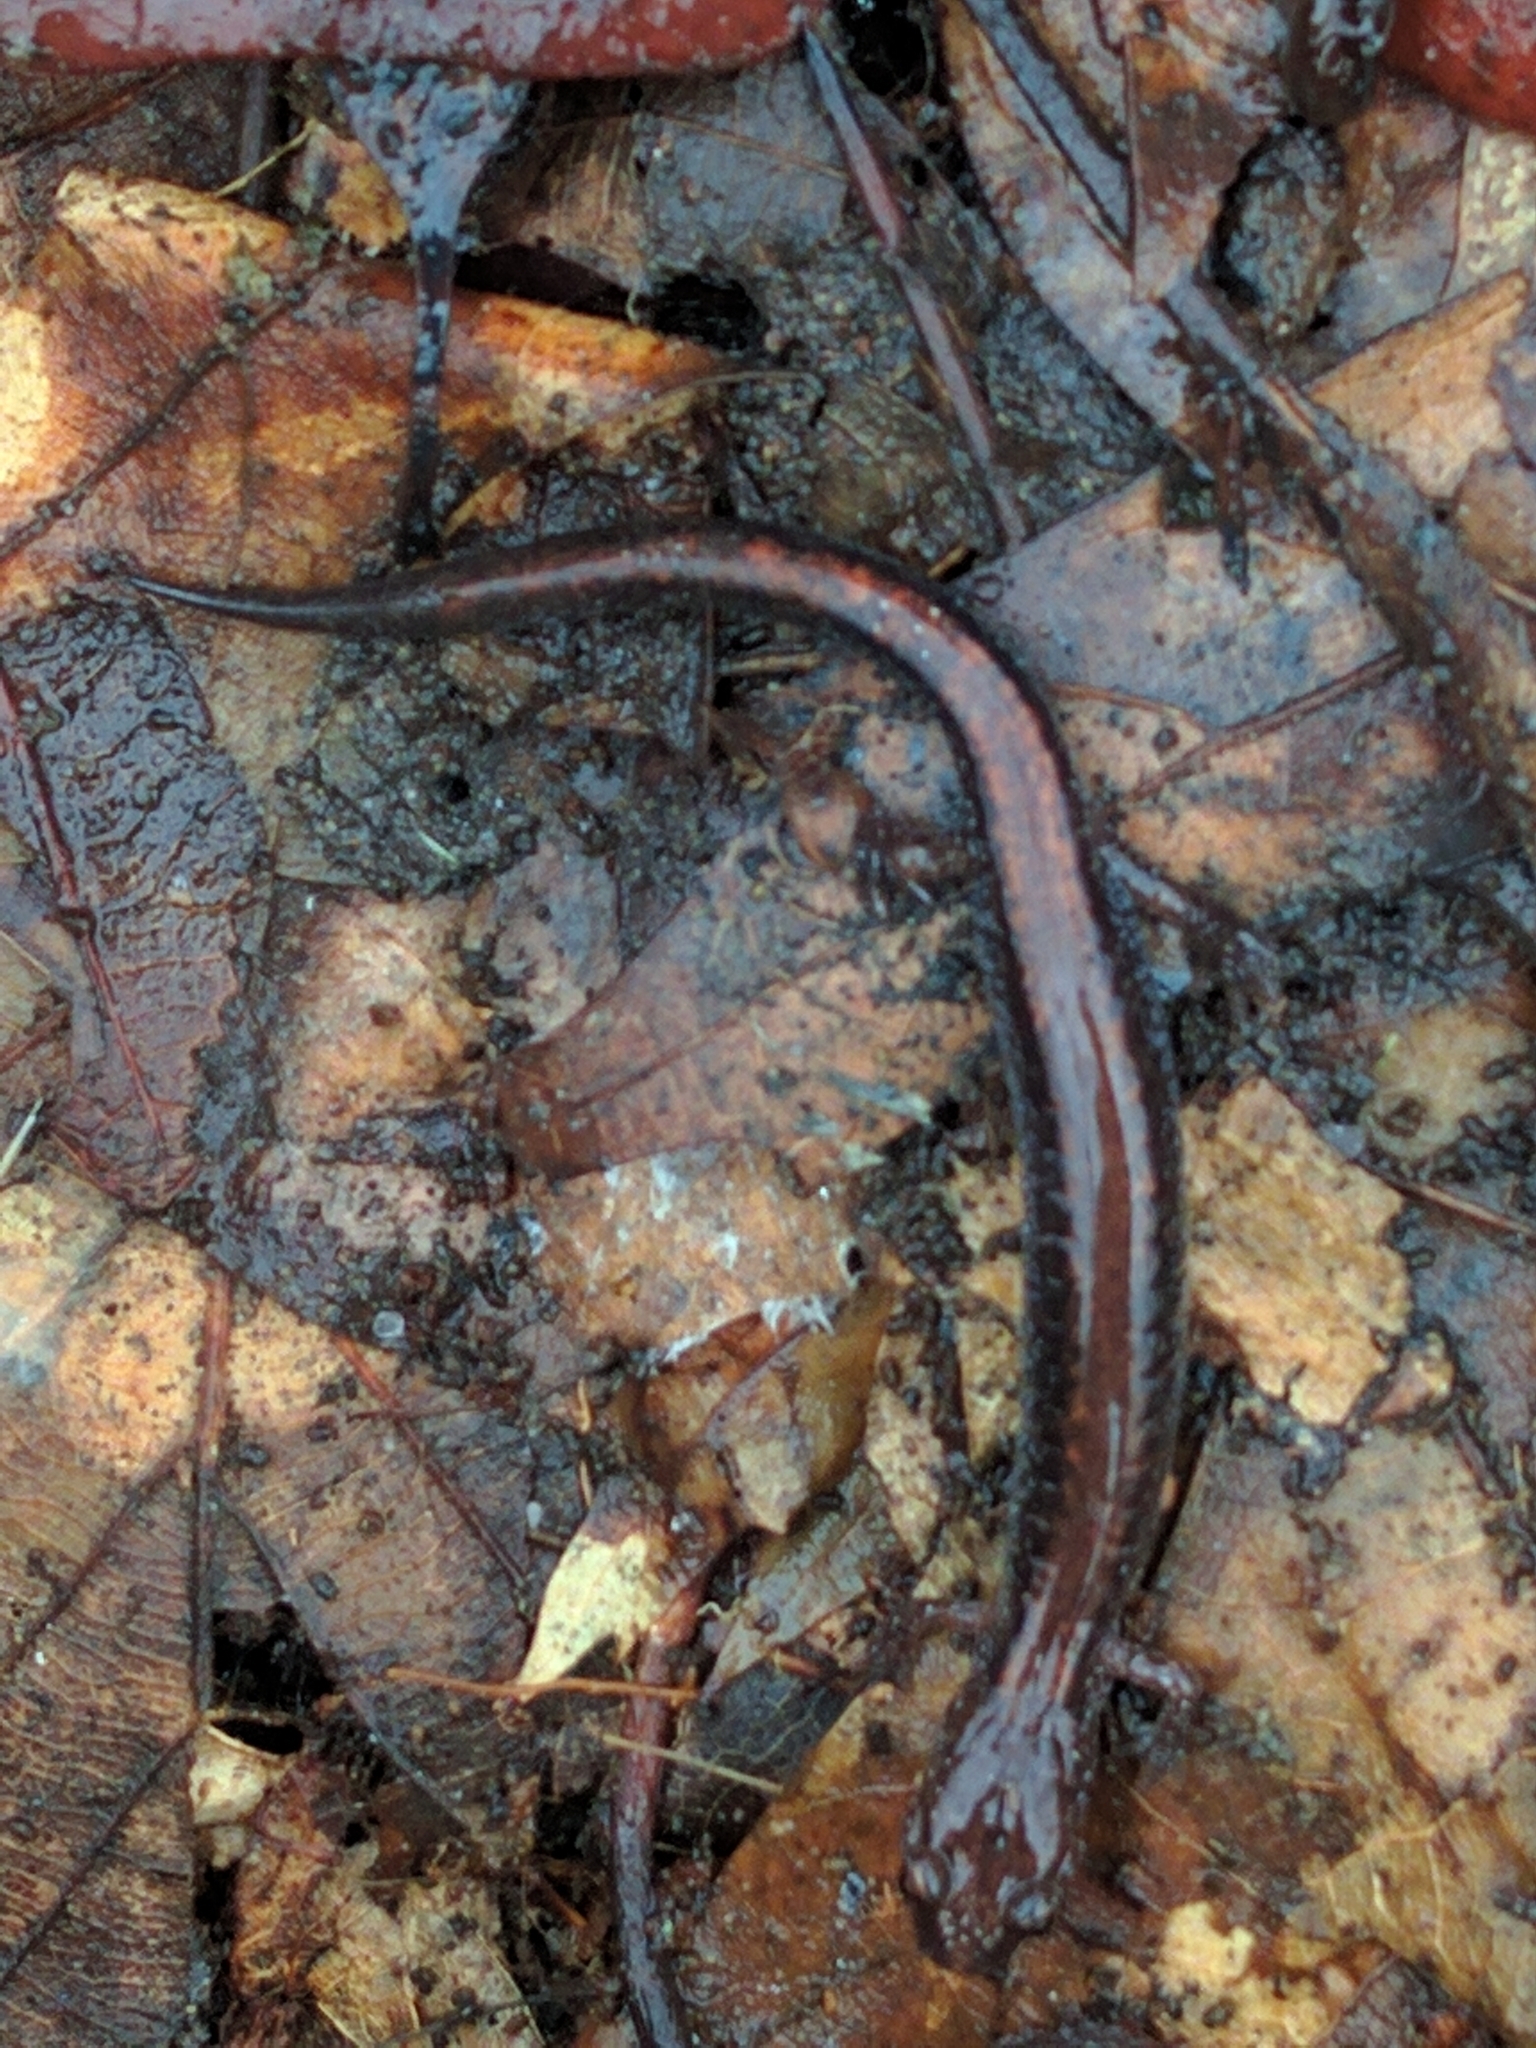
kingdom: Animalia
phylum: Chordata
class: Amphibia
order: Caudata
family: Plethodontidae
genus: Plethodon
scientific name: Plethodon cinereus
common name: Redback salamander
